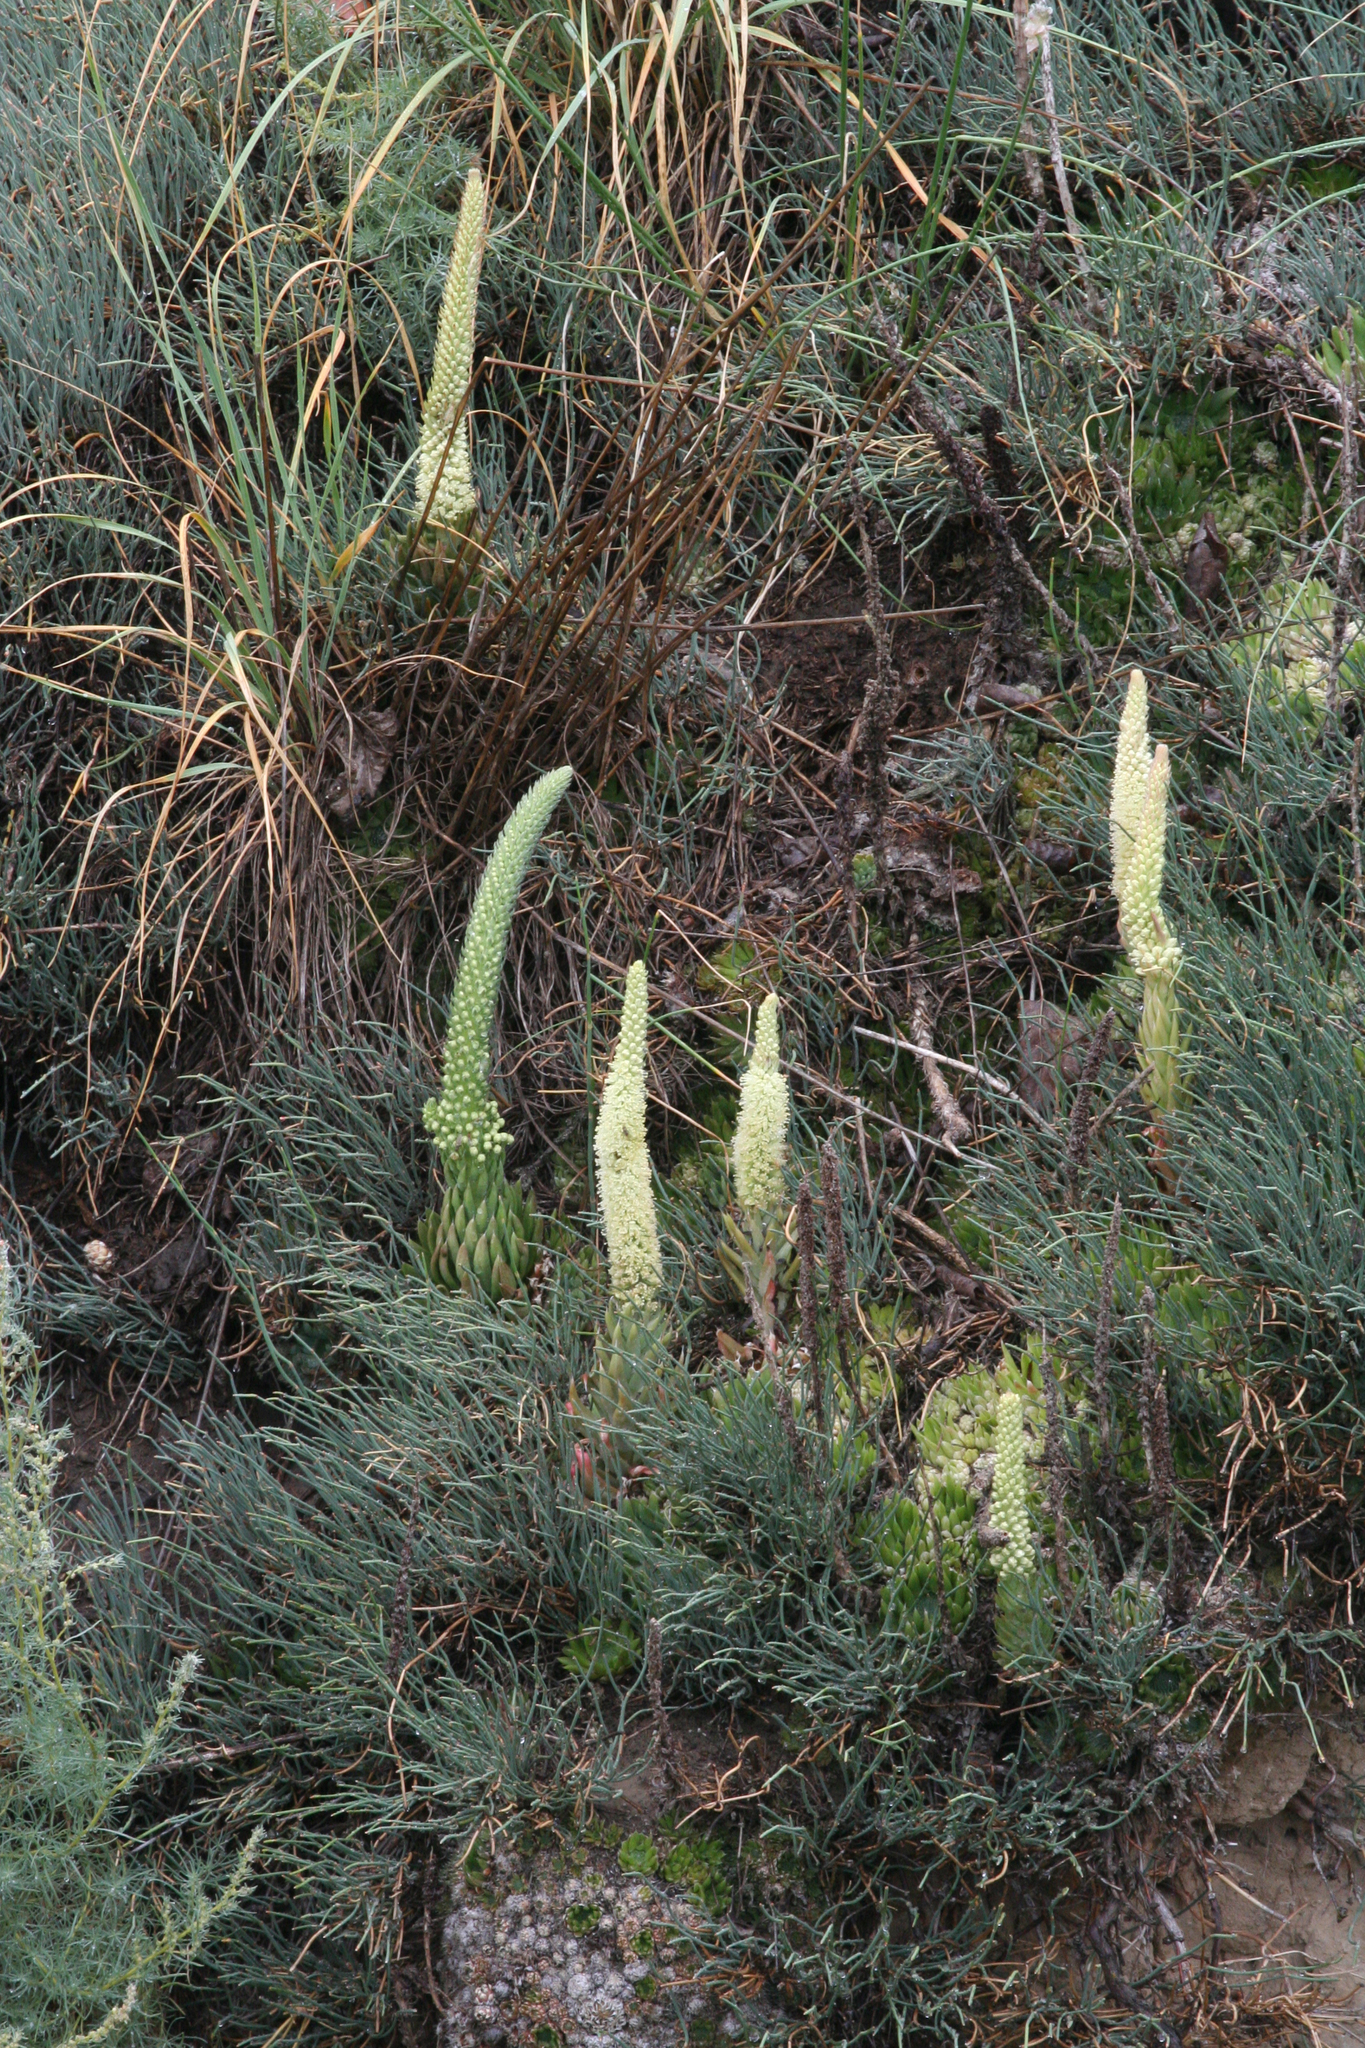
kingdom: Plantae
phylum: Tracheophyta
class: Magnoliopsida
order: Saxifragales
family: Crassulaceae
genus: Orostachys
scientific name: Orostachys spinosa
